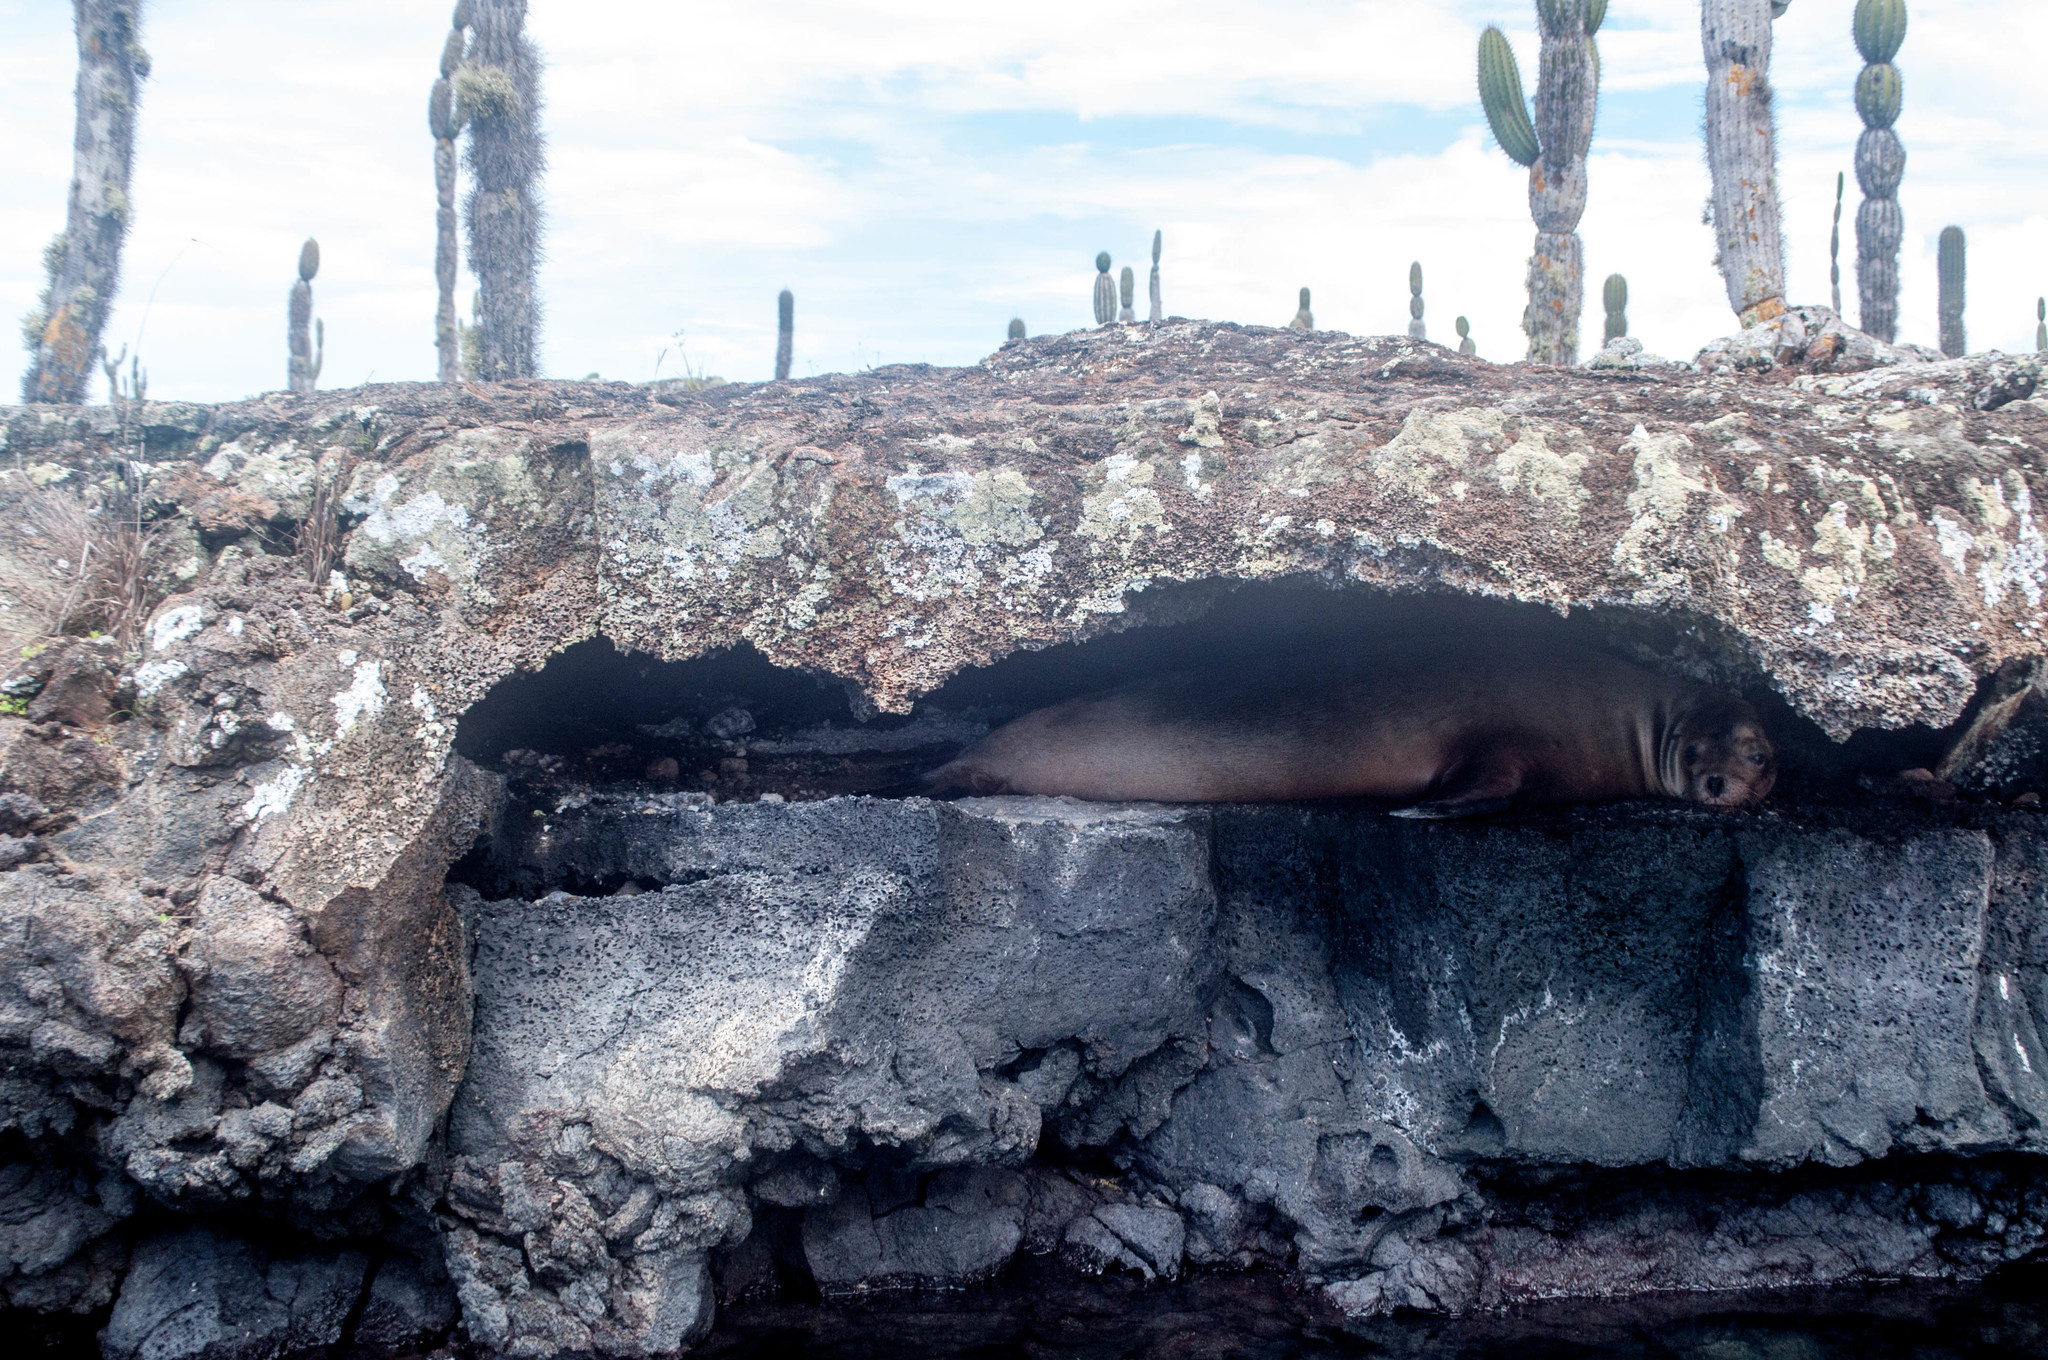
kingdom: Animalia
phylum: Chordata
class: Mammalia
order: Carnivora
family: Otariidae
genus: Zalophus
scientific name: Zalophus wollebaeki
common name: Galapagos sea lion
